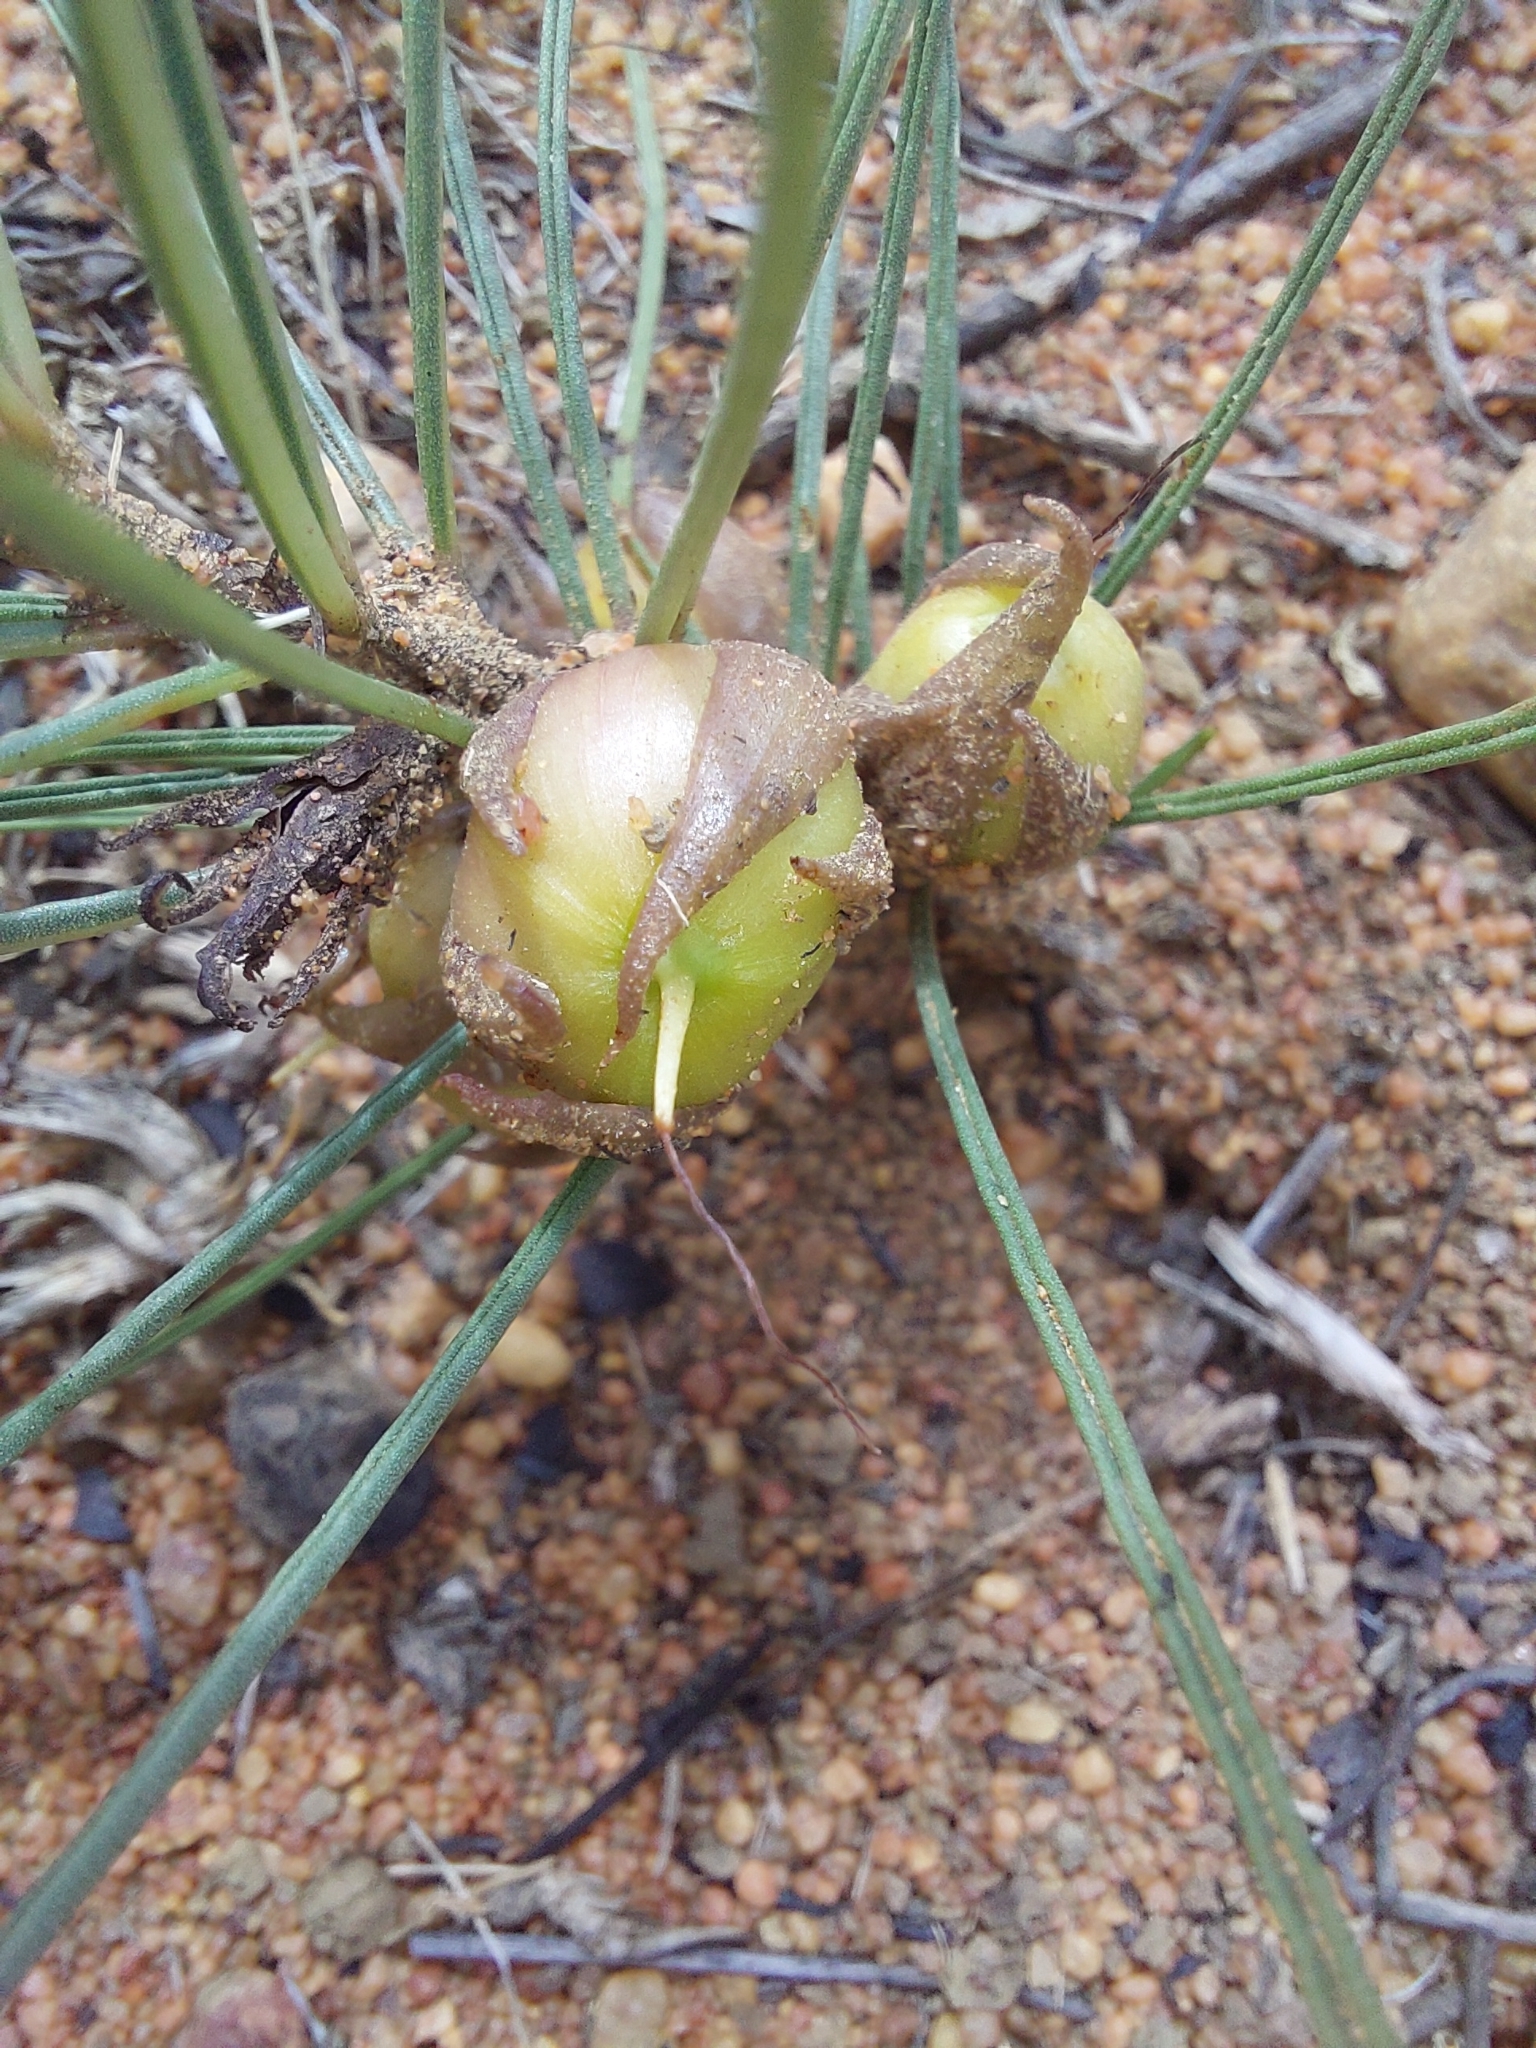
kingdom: Plantae
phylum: Tracheophyta
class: Magnoliopsida
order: Solanales
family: Convolvulaceae
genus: Ipomoea
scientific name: Ipomoea bolusiana
